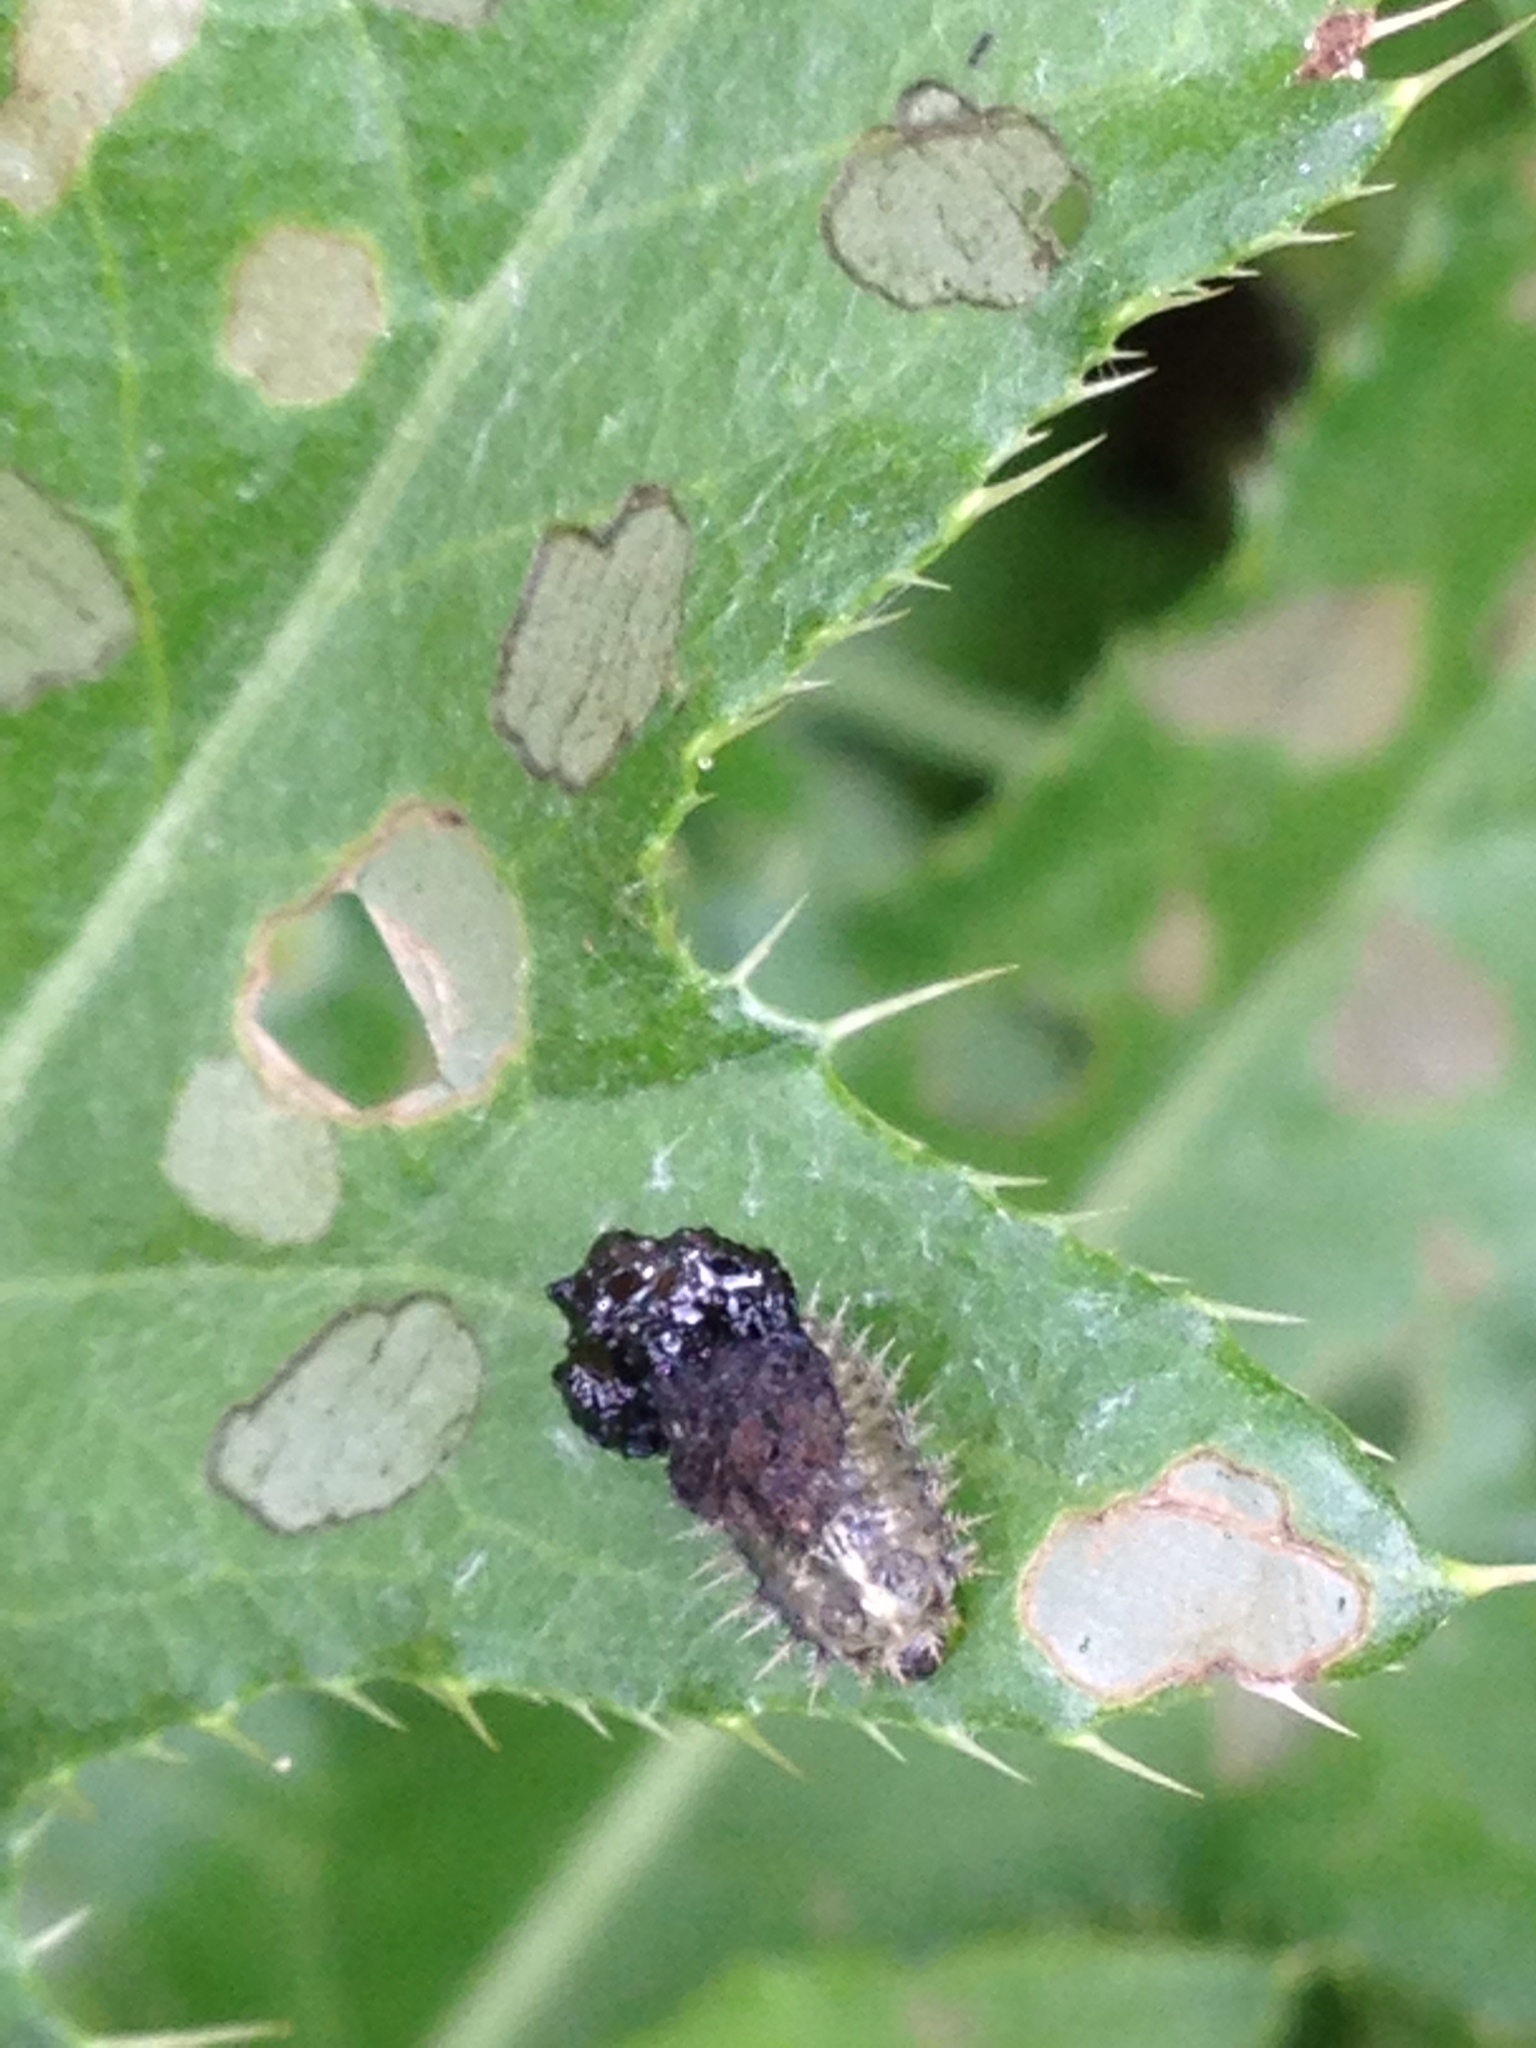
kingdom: Animalia
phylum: Arthropoda
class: Insecta
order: Coleoptera
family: Chrysomelidae
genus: Cassida
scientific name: Cassida rubiginosa
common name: Thistle tortoise beetle
